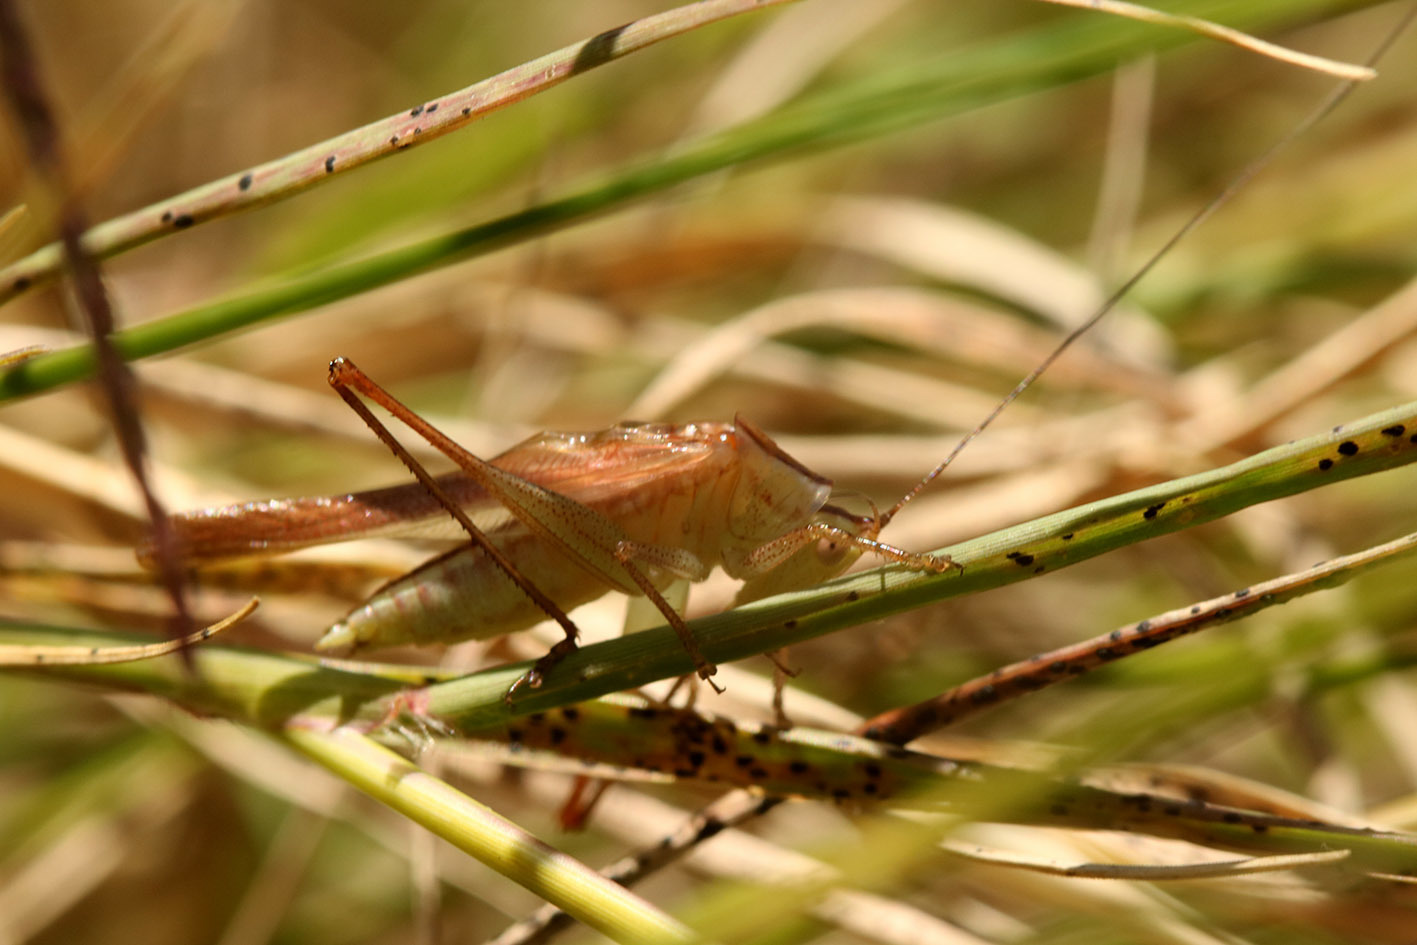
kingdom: Animalia
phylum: Arthropoda
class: Insecta
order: Orthoptera
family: Tettigoniidae
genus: Conocephalus
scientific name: Conocephalus longipes
